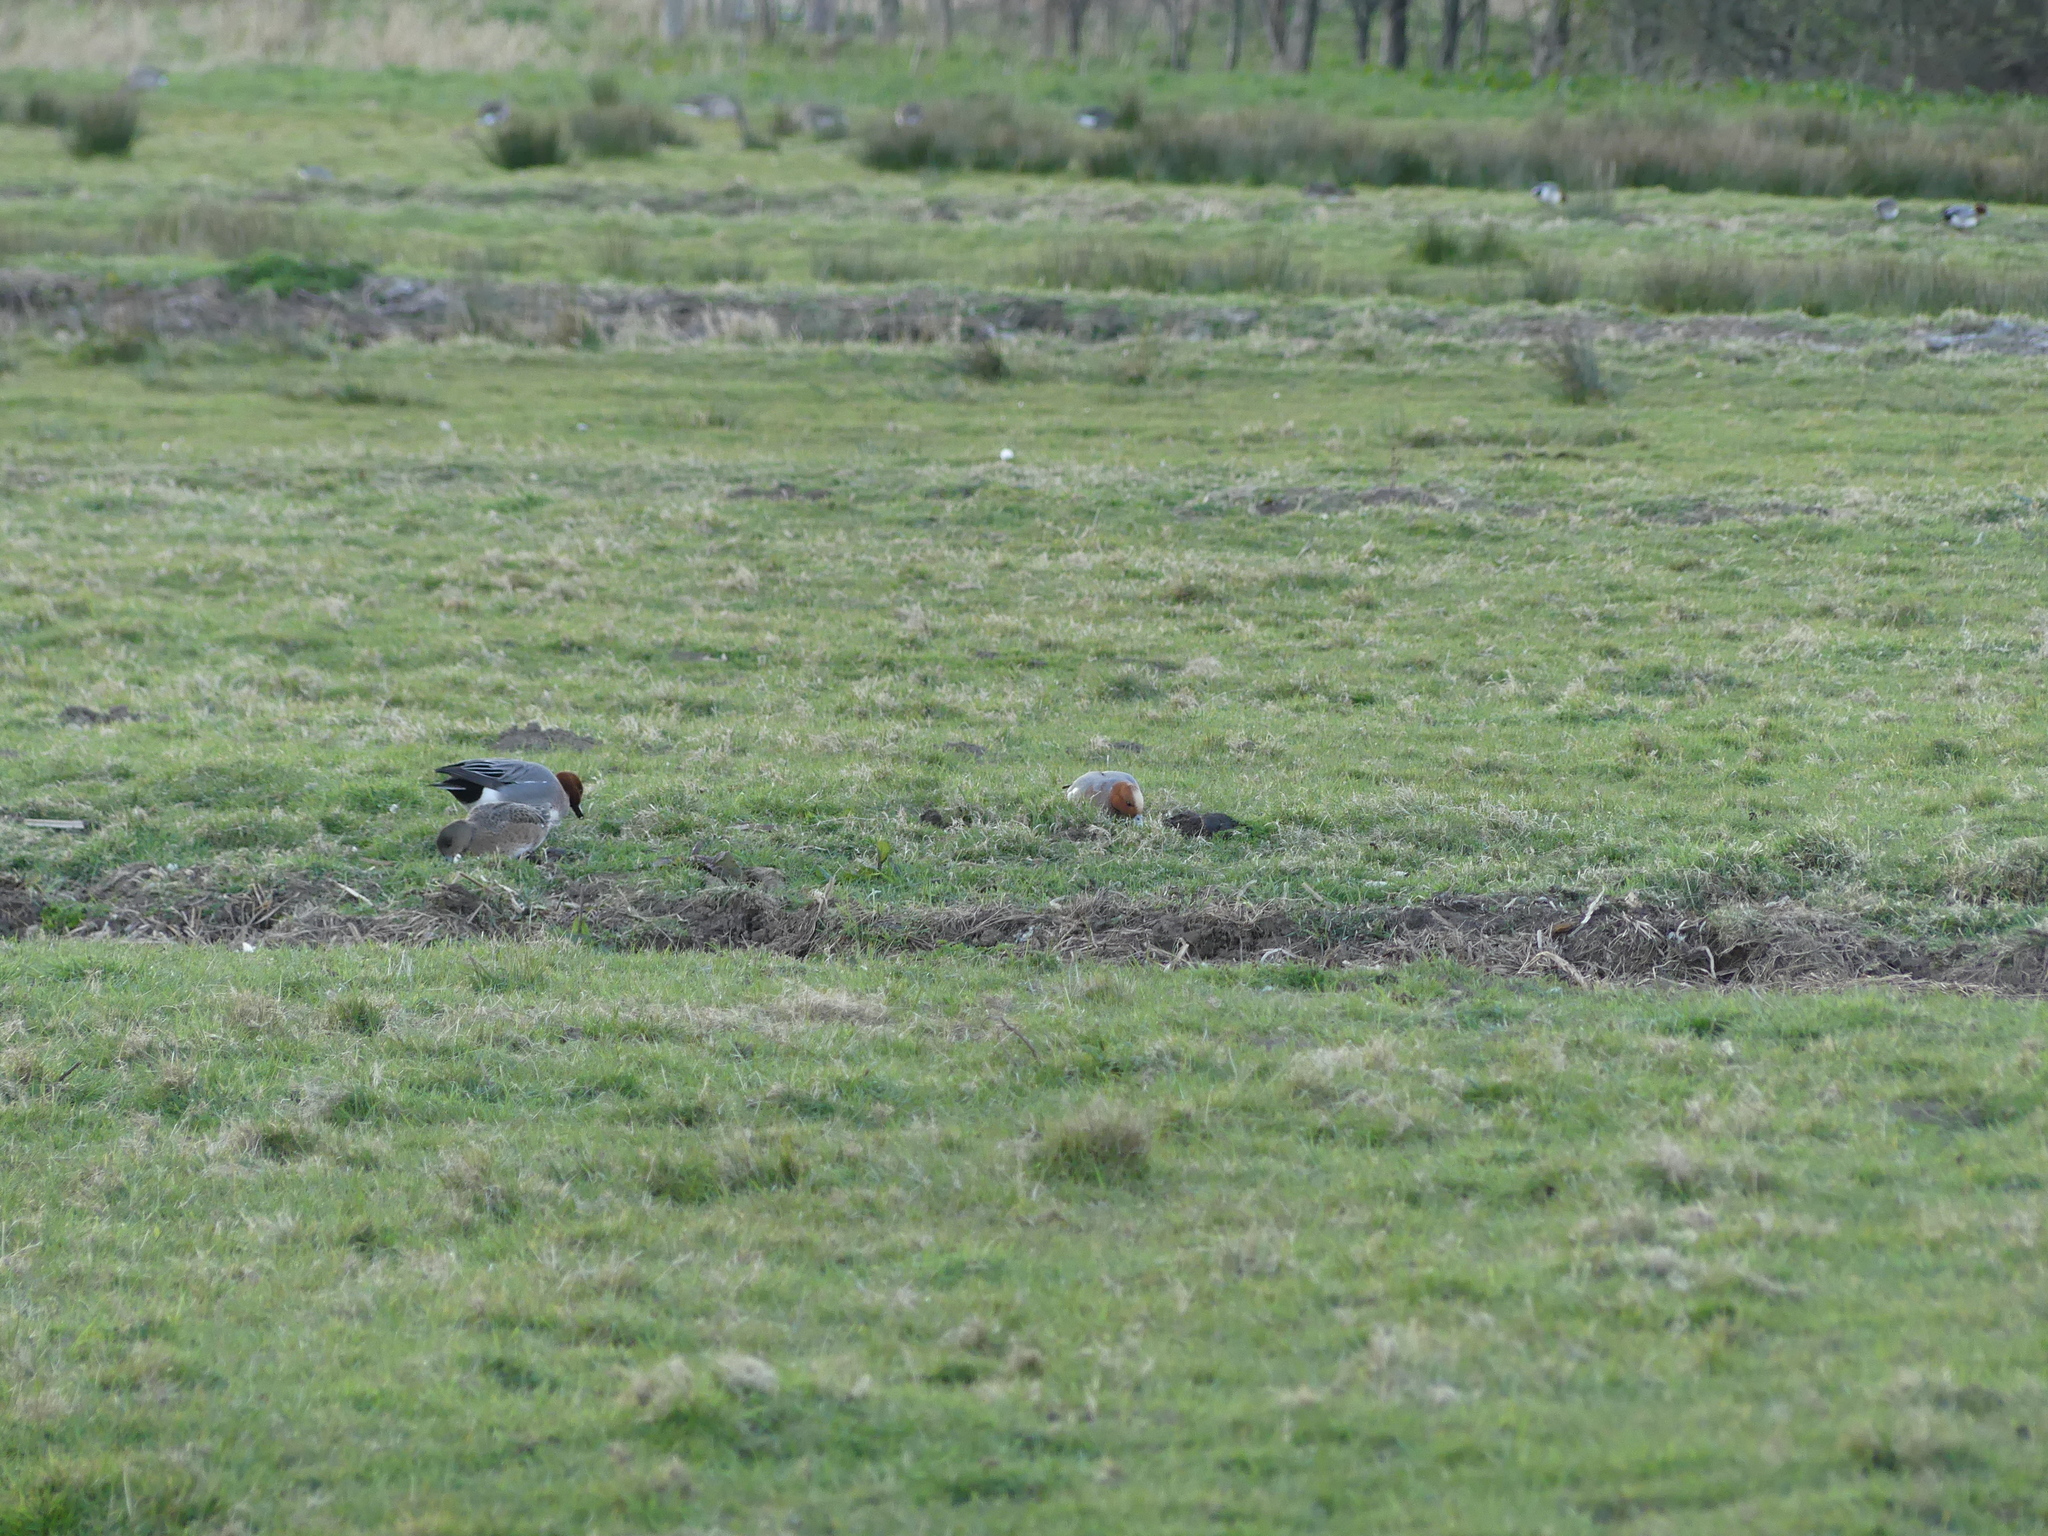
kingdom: Animalia
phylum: Chordata
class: Aves
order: Anseriformes
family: Anatidae
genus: Mareca
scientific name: Mareca penelope
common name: Eurasian wigeon
